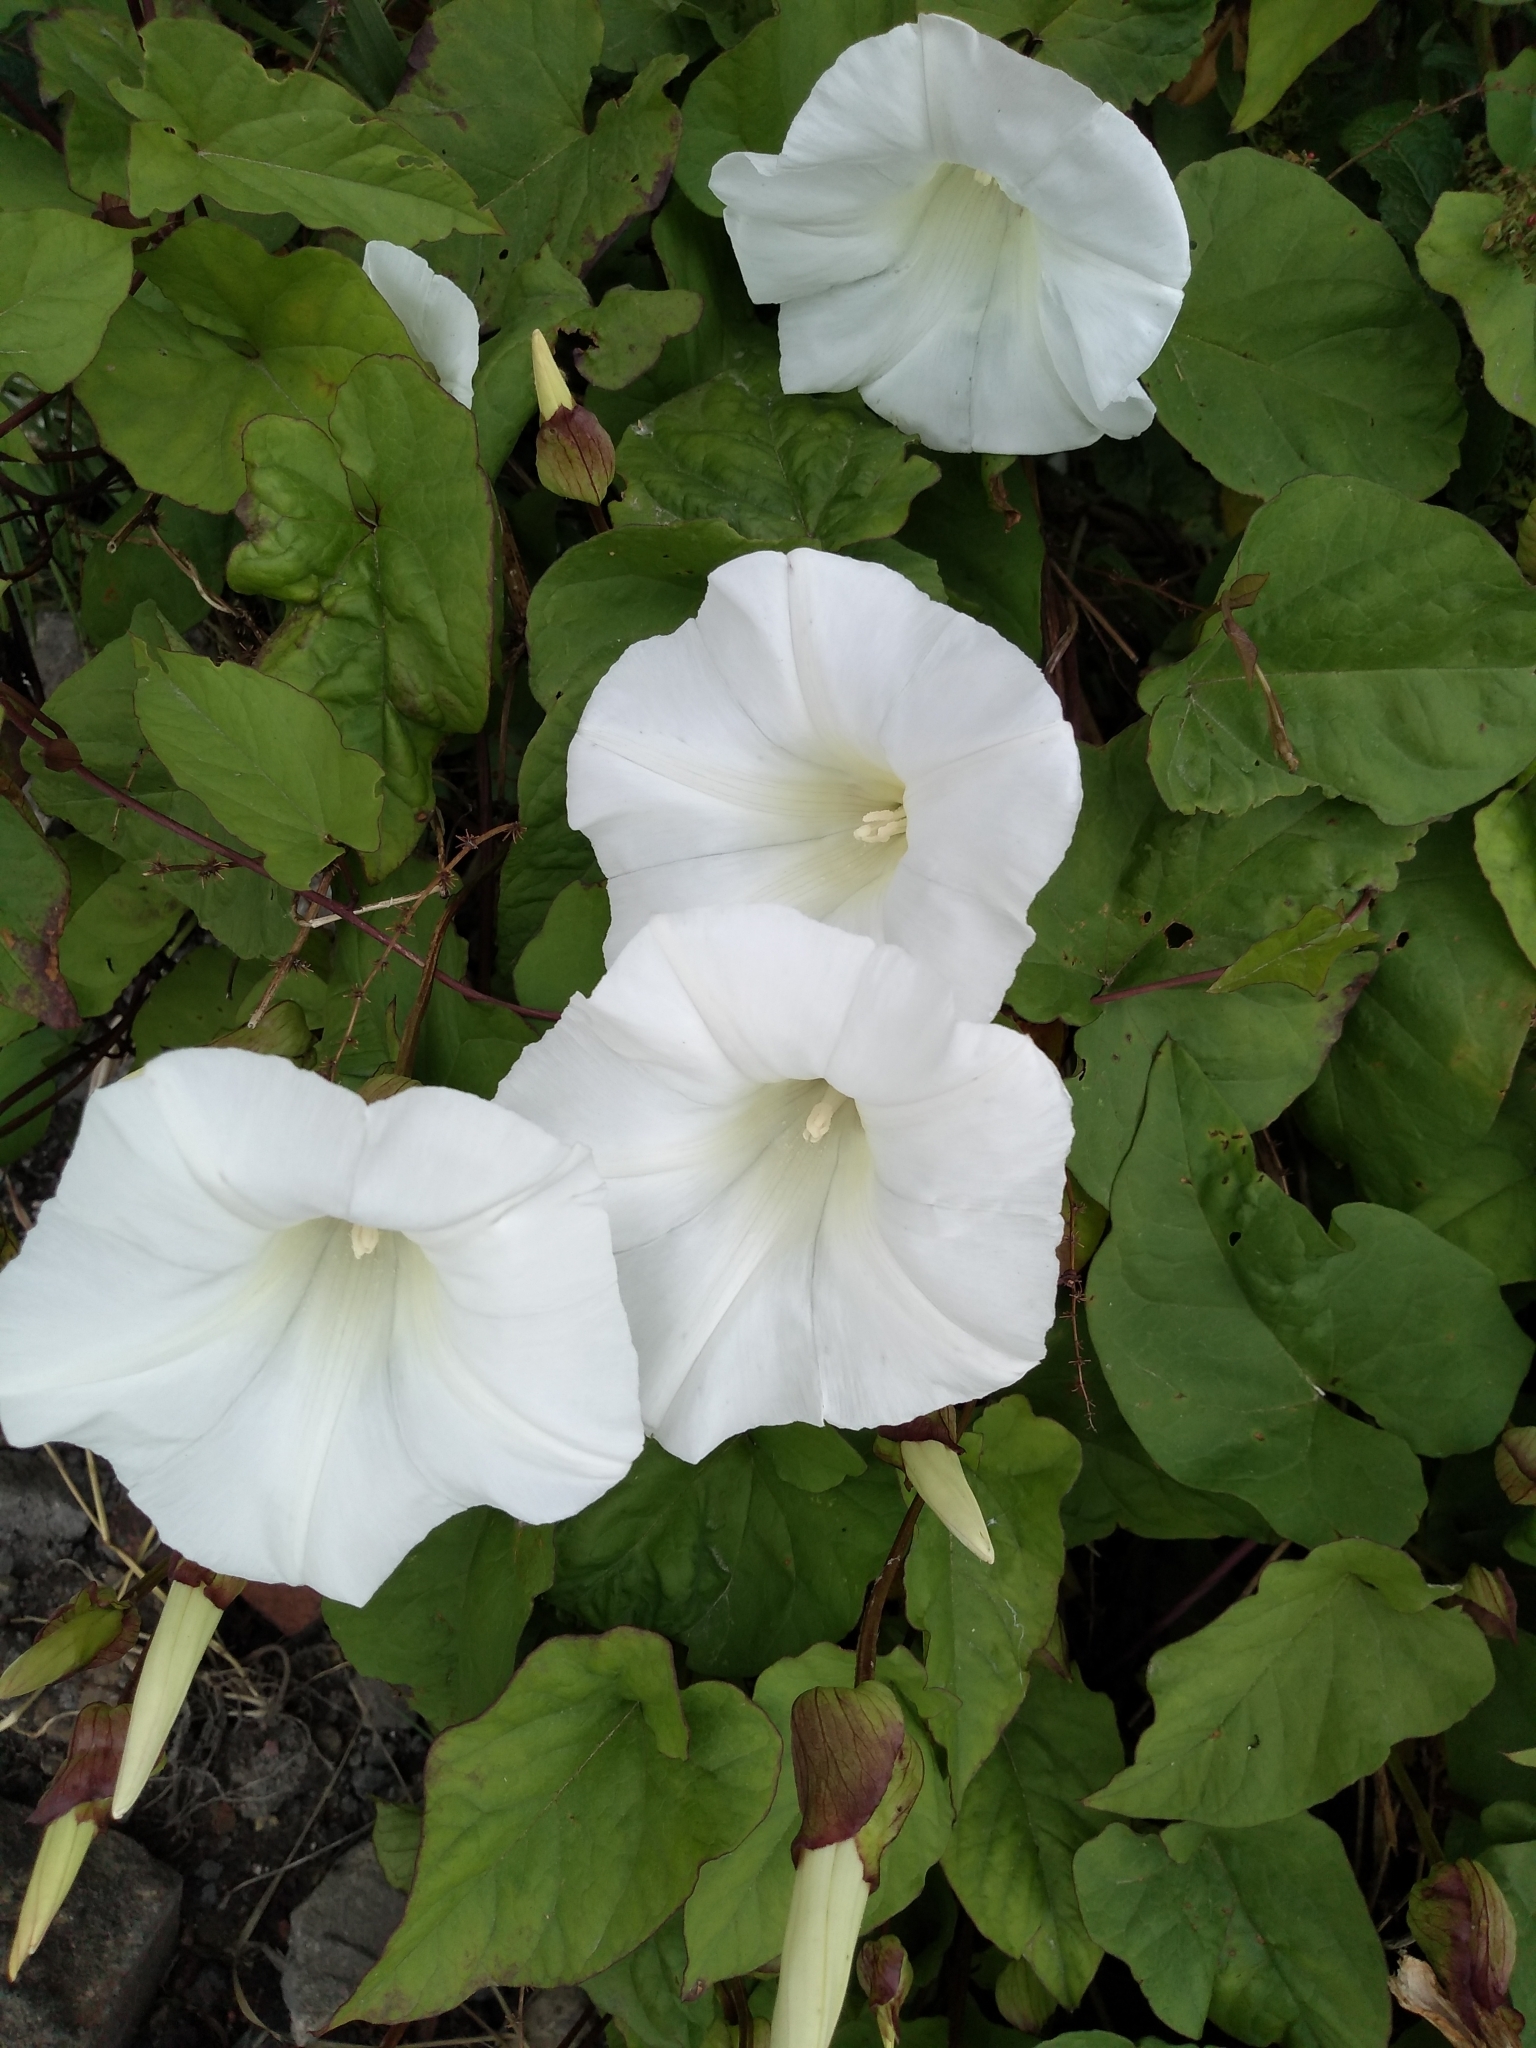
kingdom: Plantae
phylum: Tracheophyta
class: Magnoliopsida
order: Solanales
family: Convolvulaceae
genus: Calystegia
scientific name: Calystegia silvatica
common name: Large bindweed
